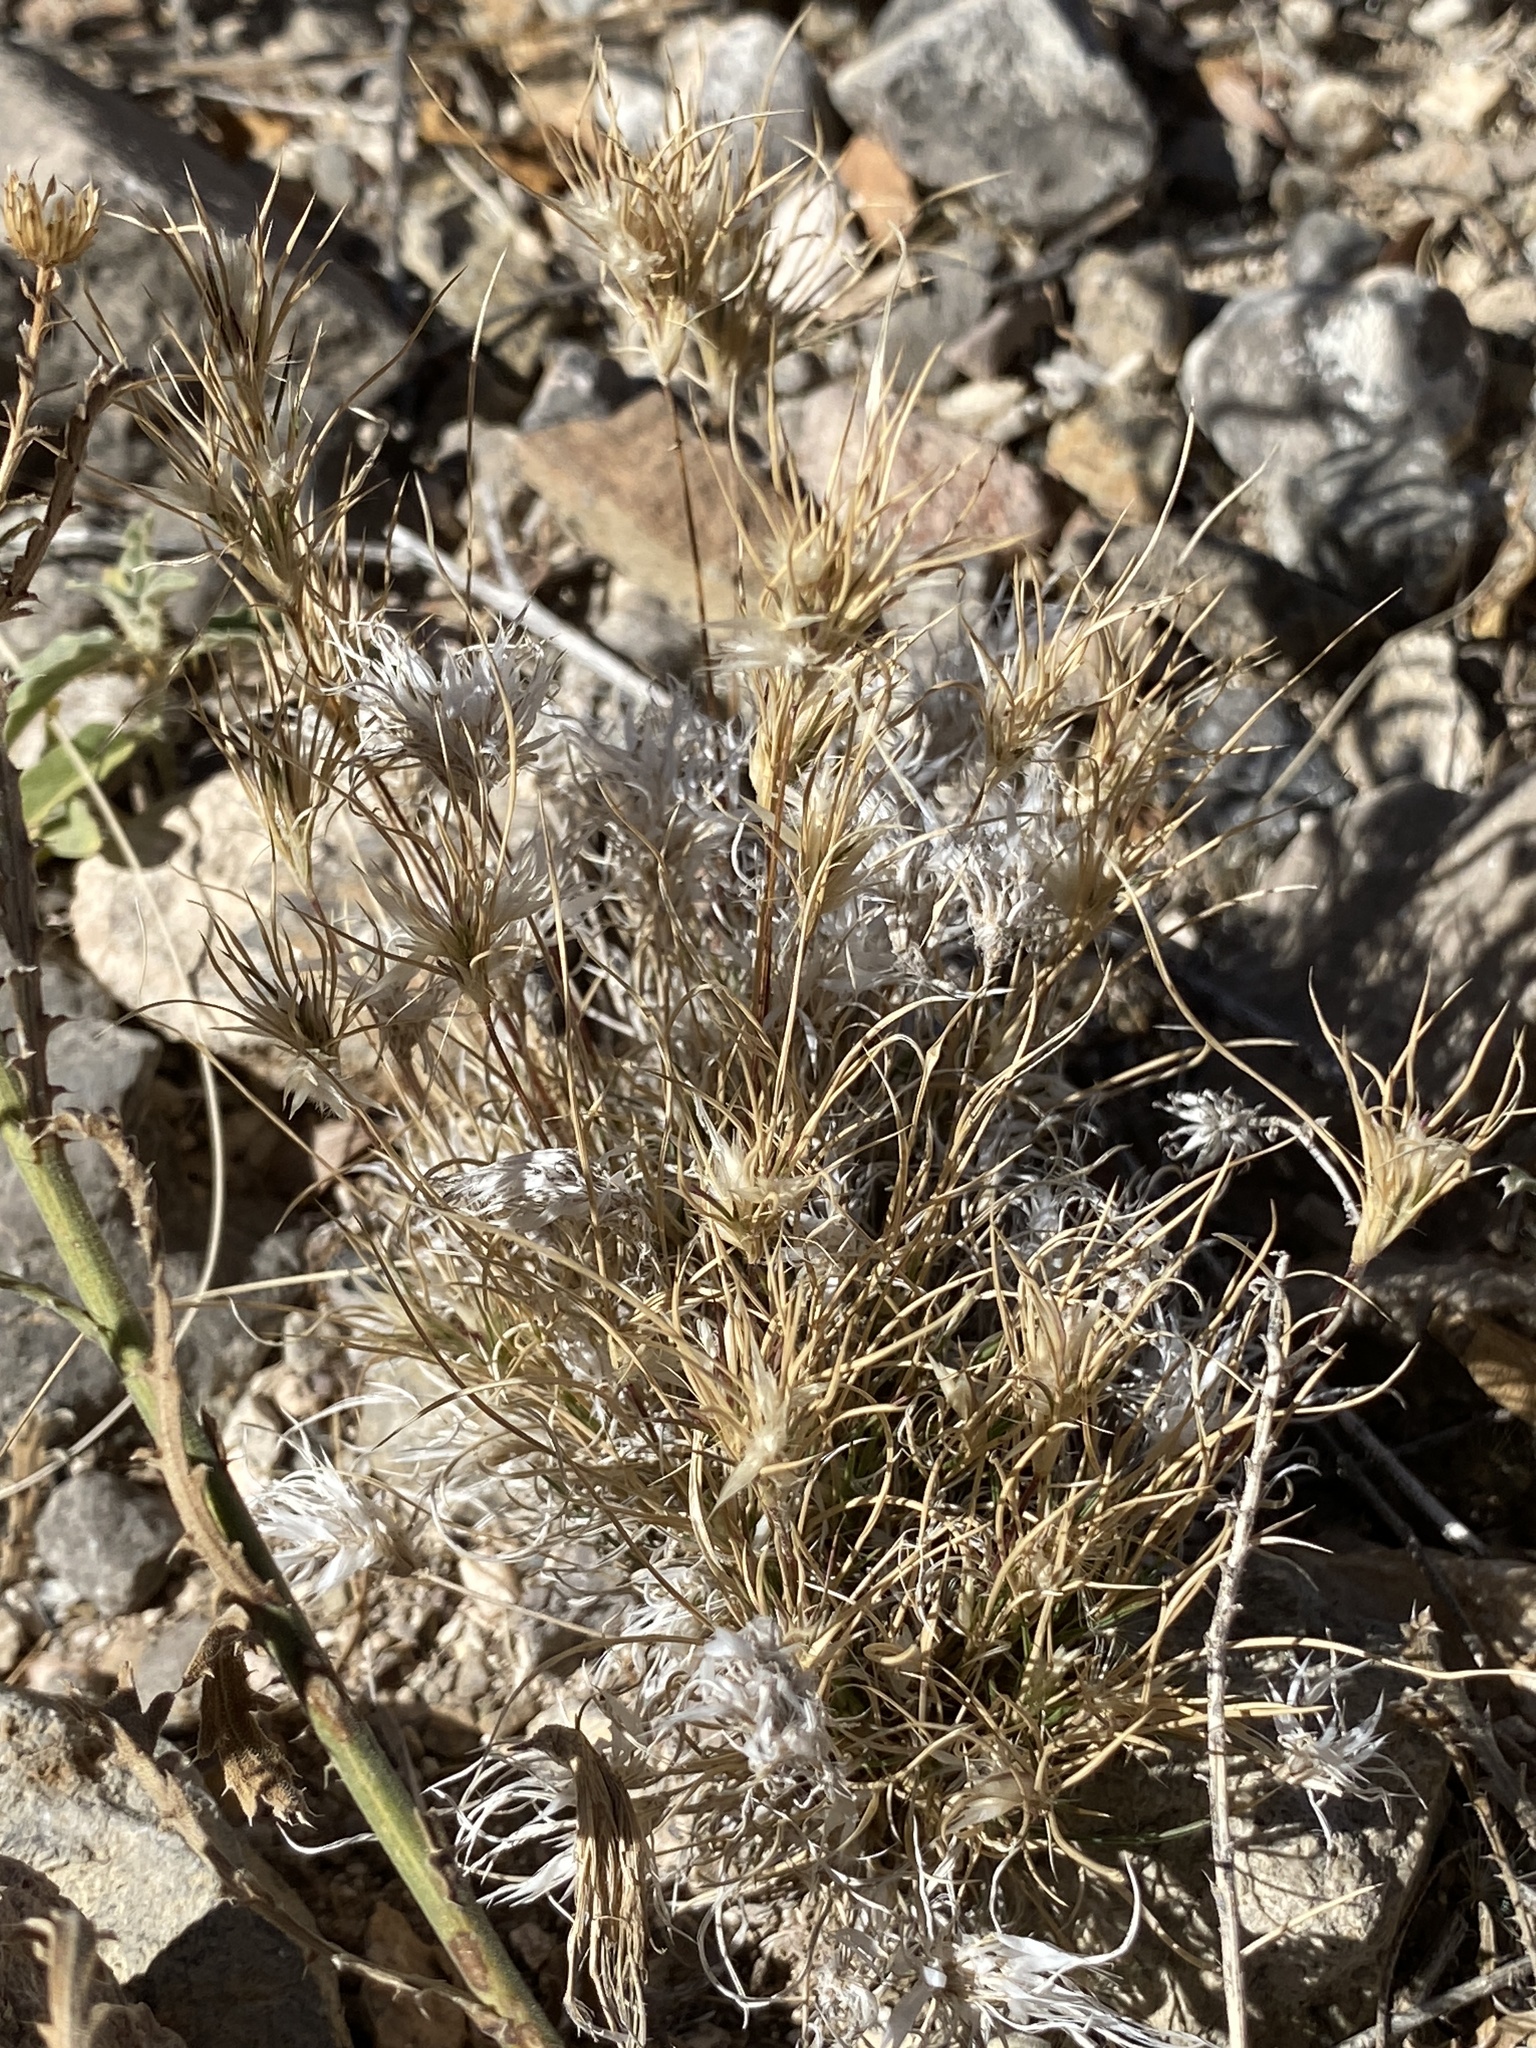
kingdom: Plantae
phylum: Tracheophyta
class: Liliopsida
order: Poales
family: Poaceae
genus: Dasyochloa
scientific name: Dasyochloa pulchella
